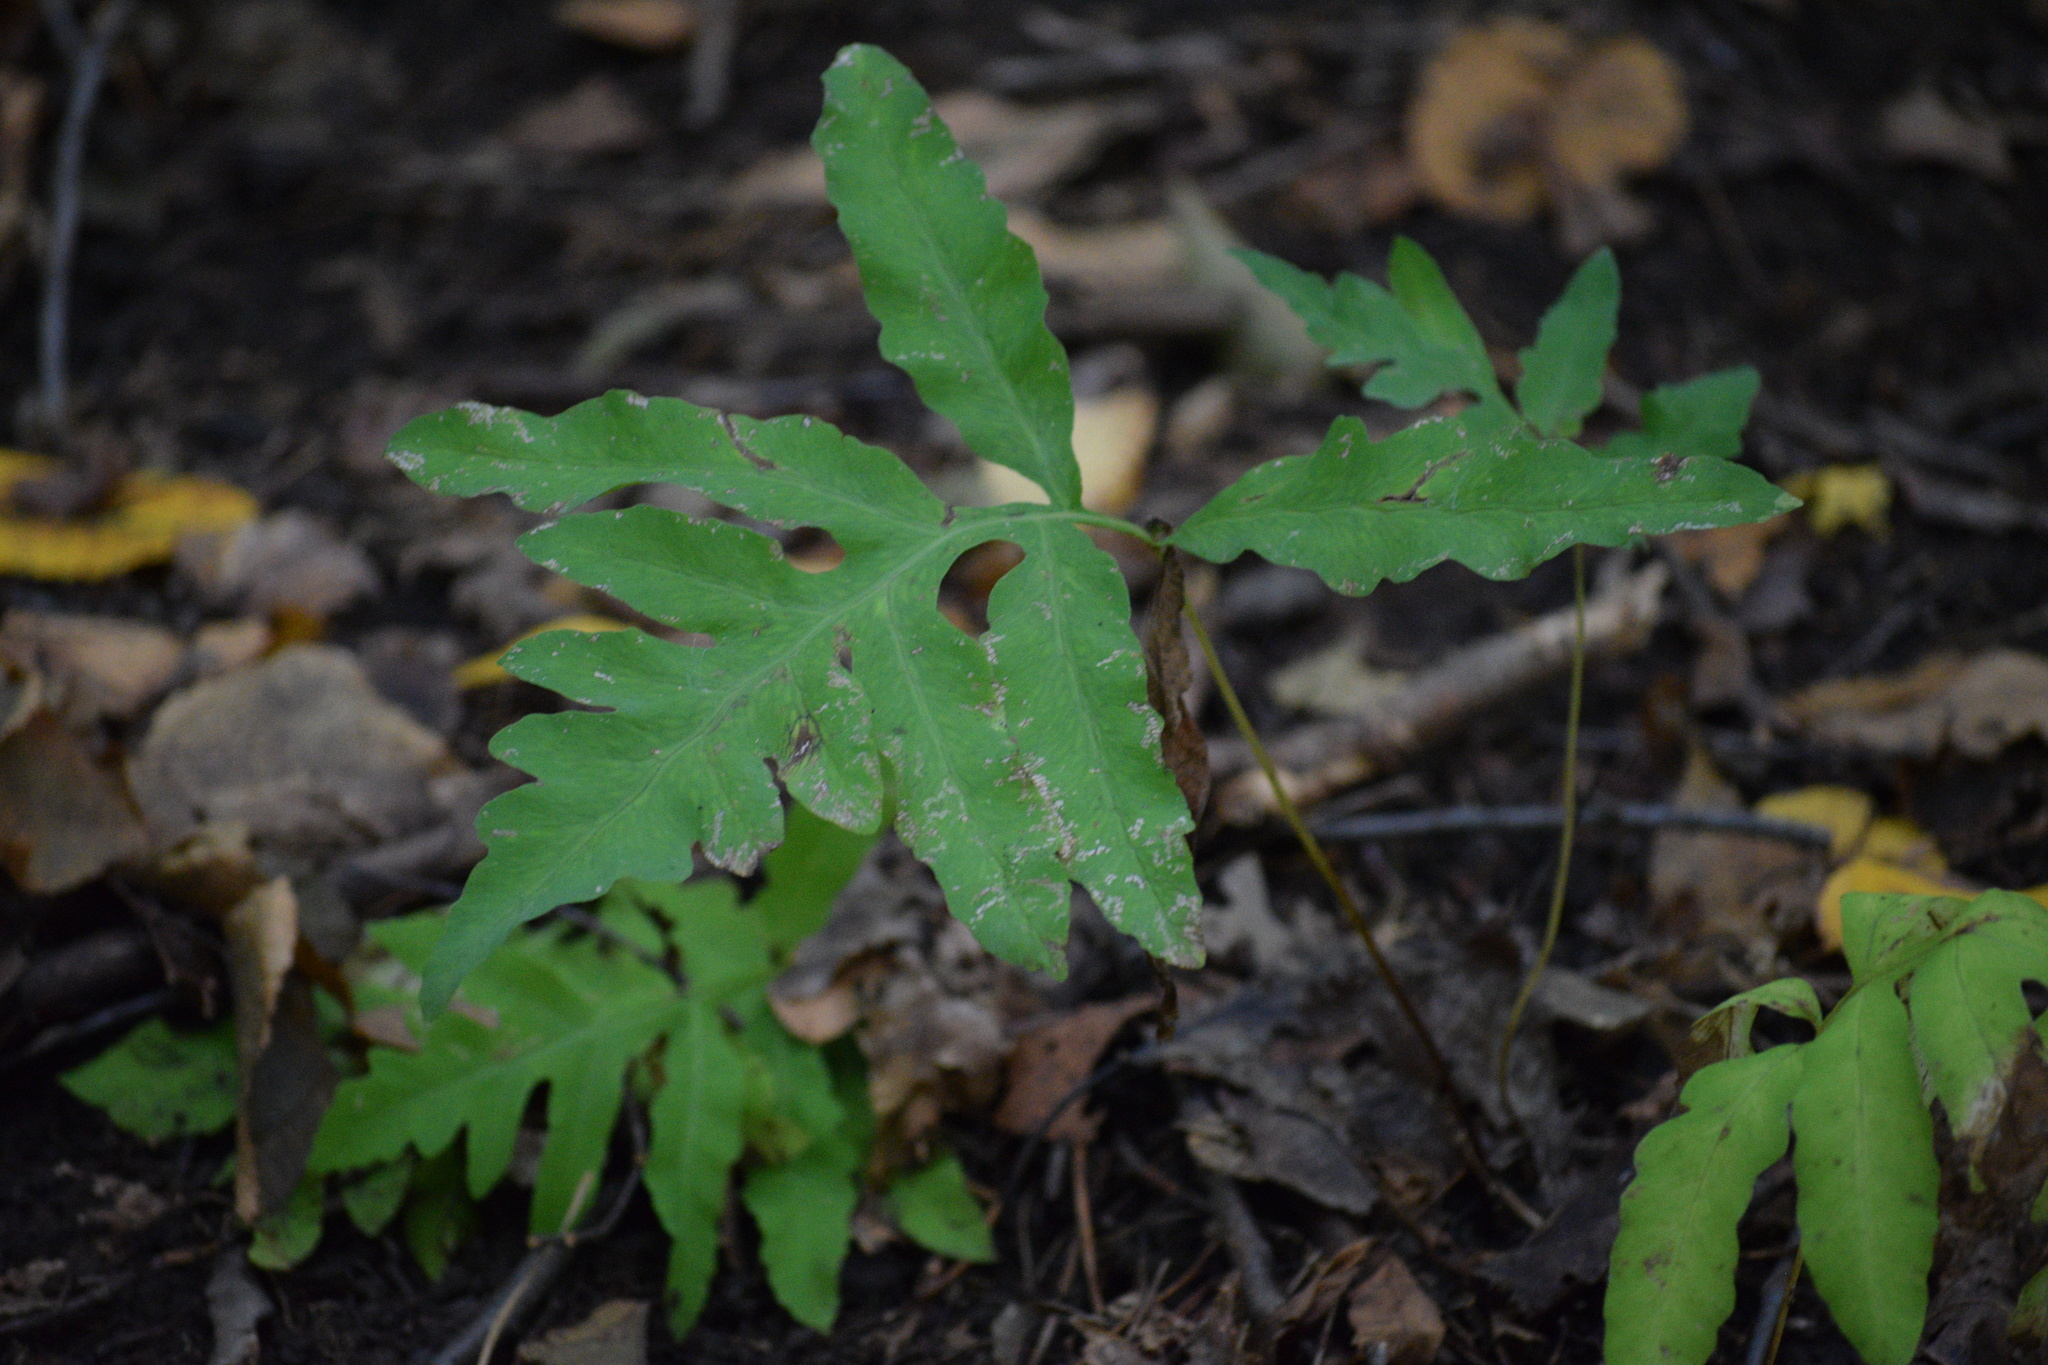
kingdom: Plantae
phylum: Tracheophyta
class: Polypodiopsida
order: Polypodiales
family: Onocleaceae
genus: Onoclea
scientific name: Onoclea sensibilis
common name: Sensitive fern
